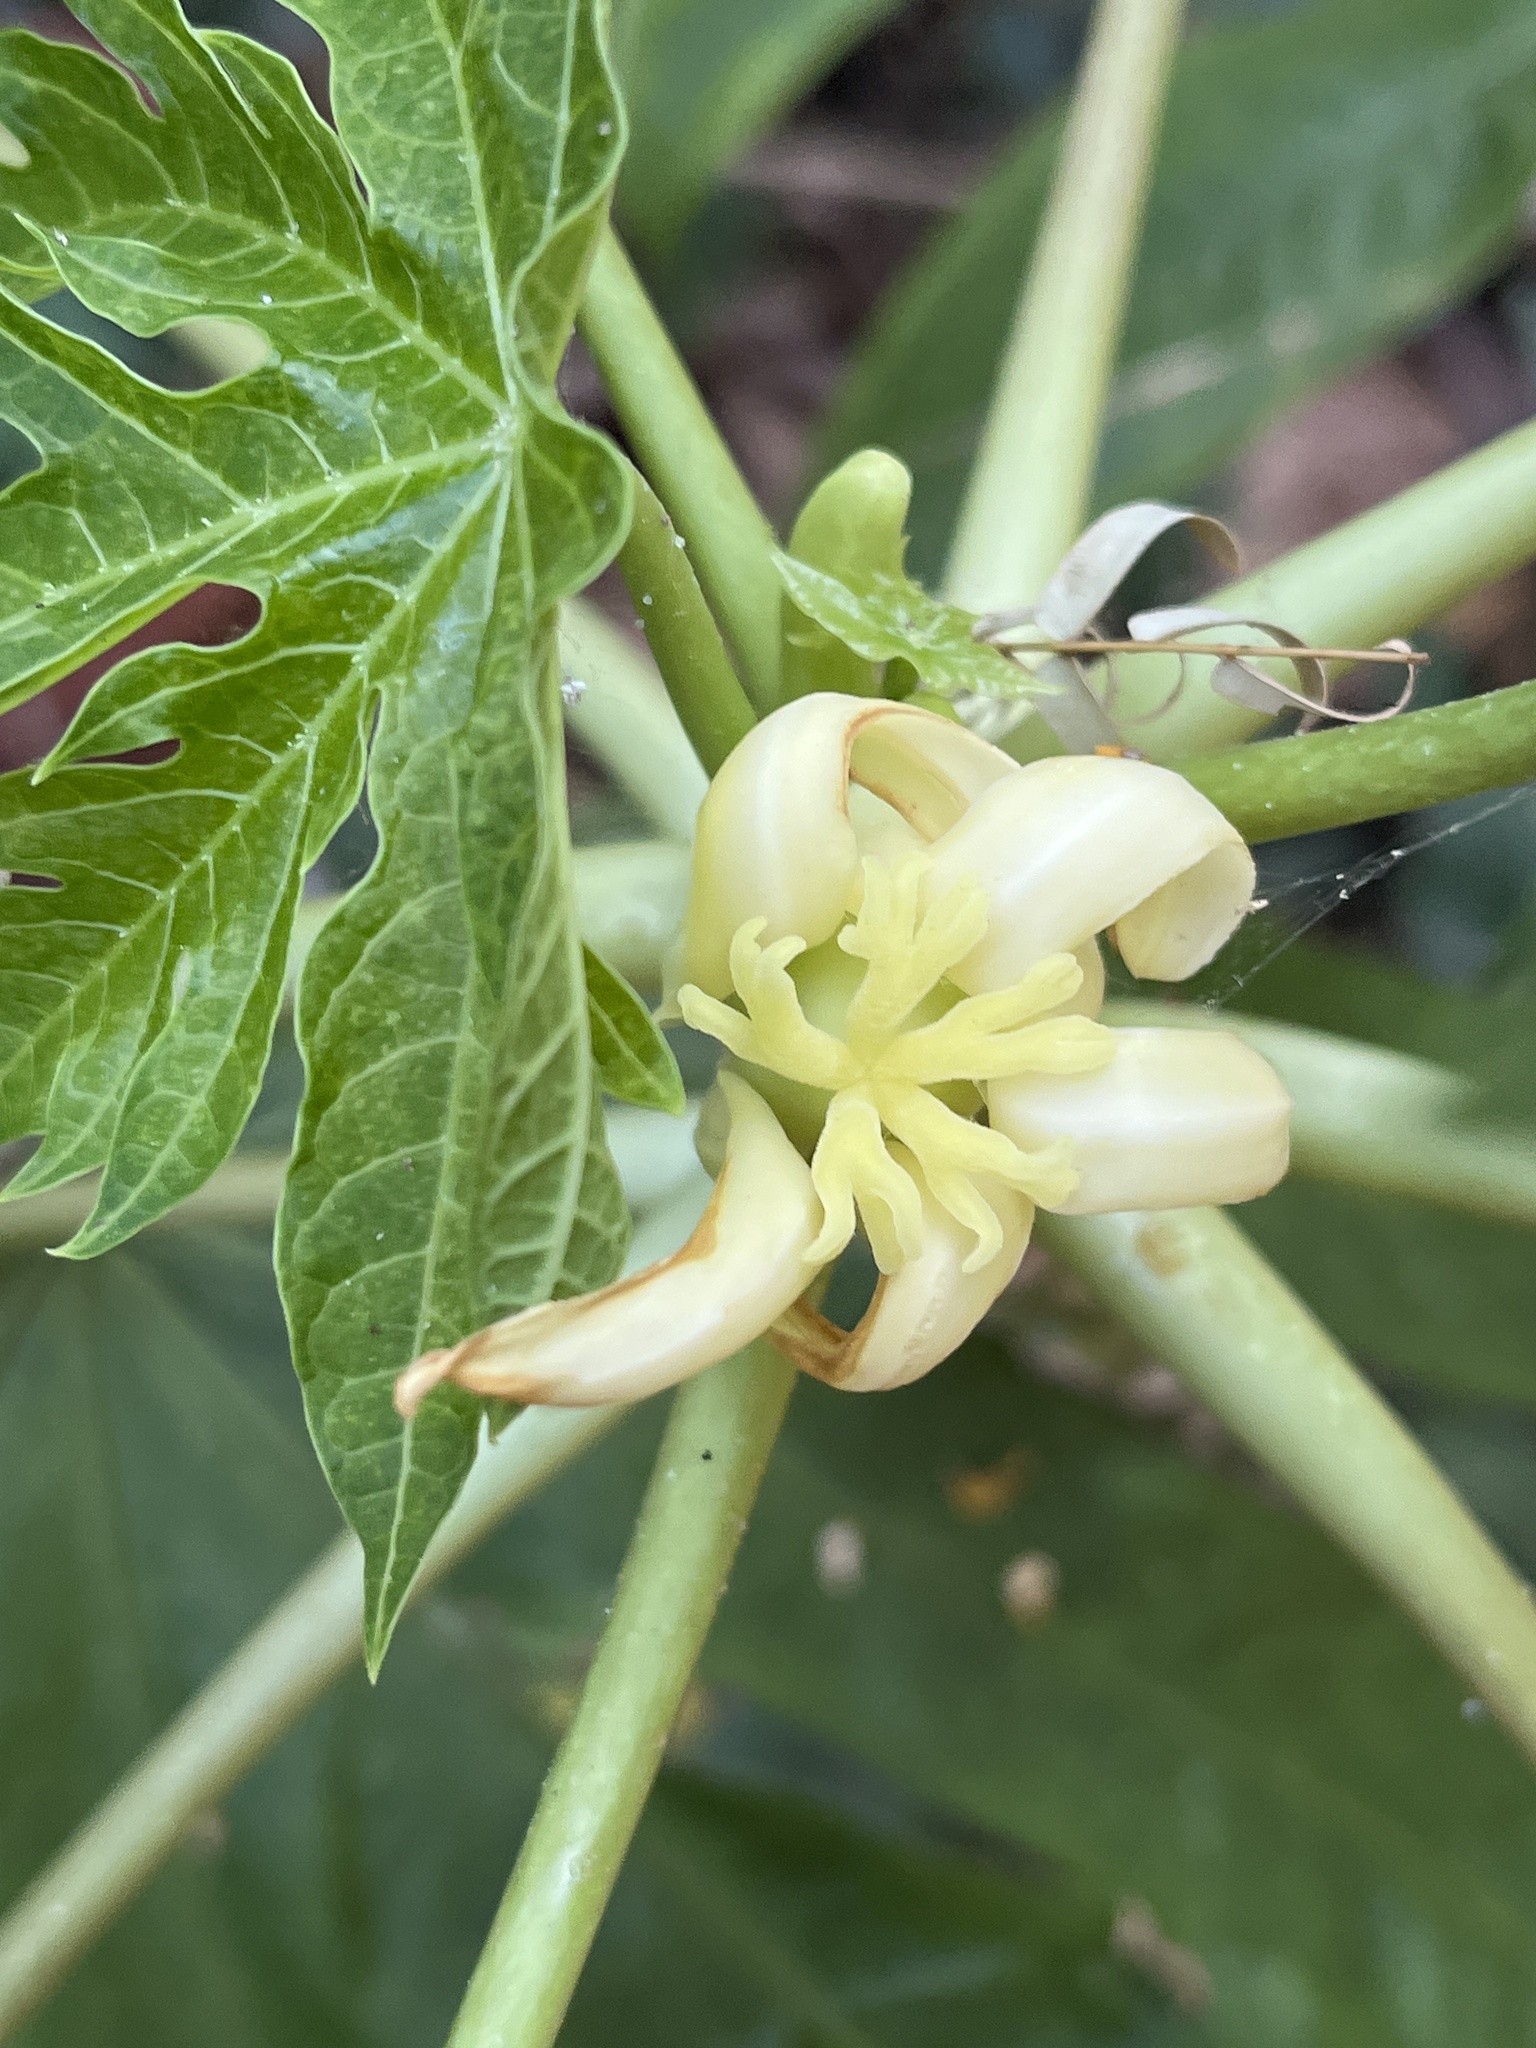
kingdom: Plantae
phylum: Tracheophyta
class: Magnoliopsida
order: Brassicales
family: Caricaceae
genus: Carica
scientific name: Carica papaya
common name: Papaya
